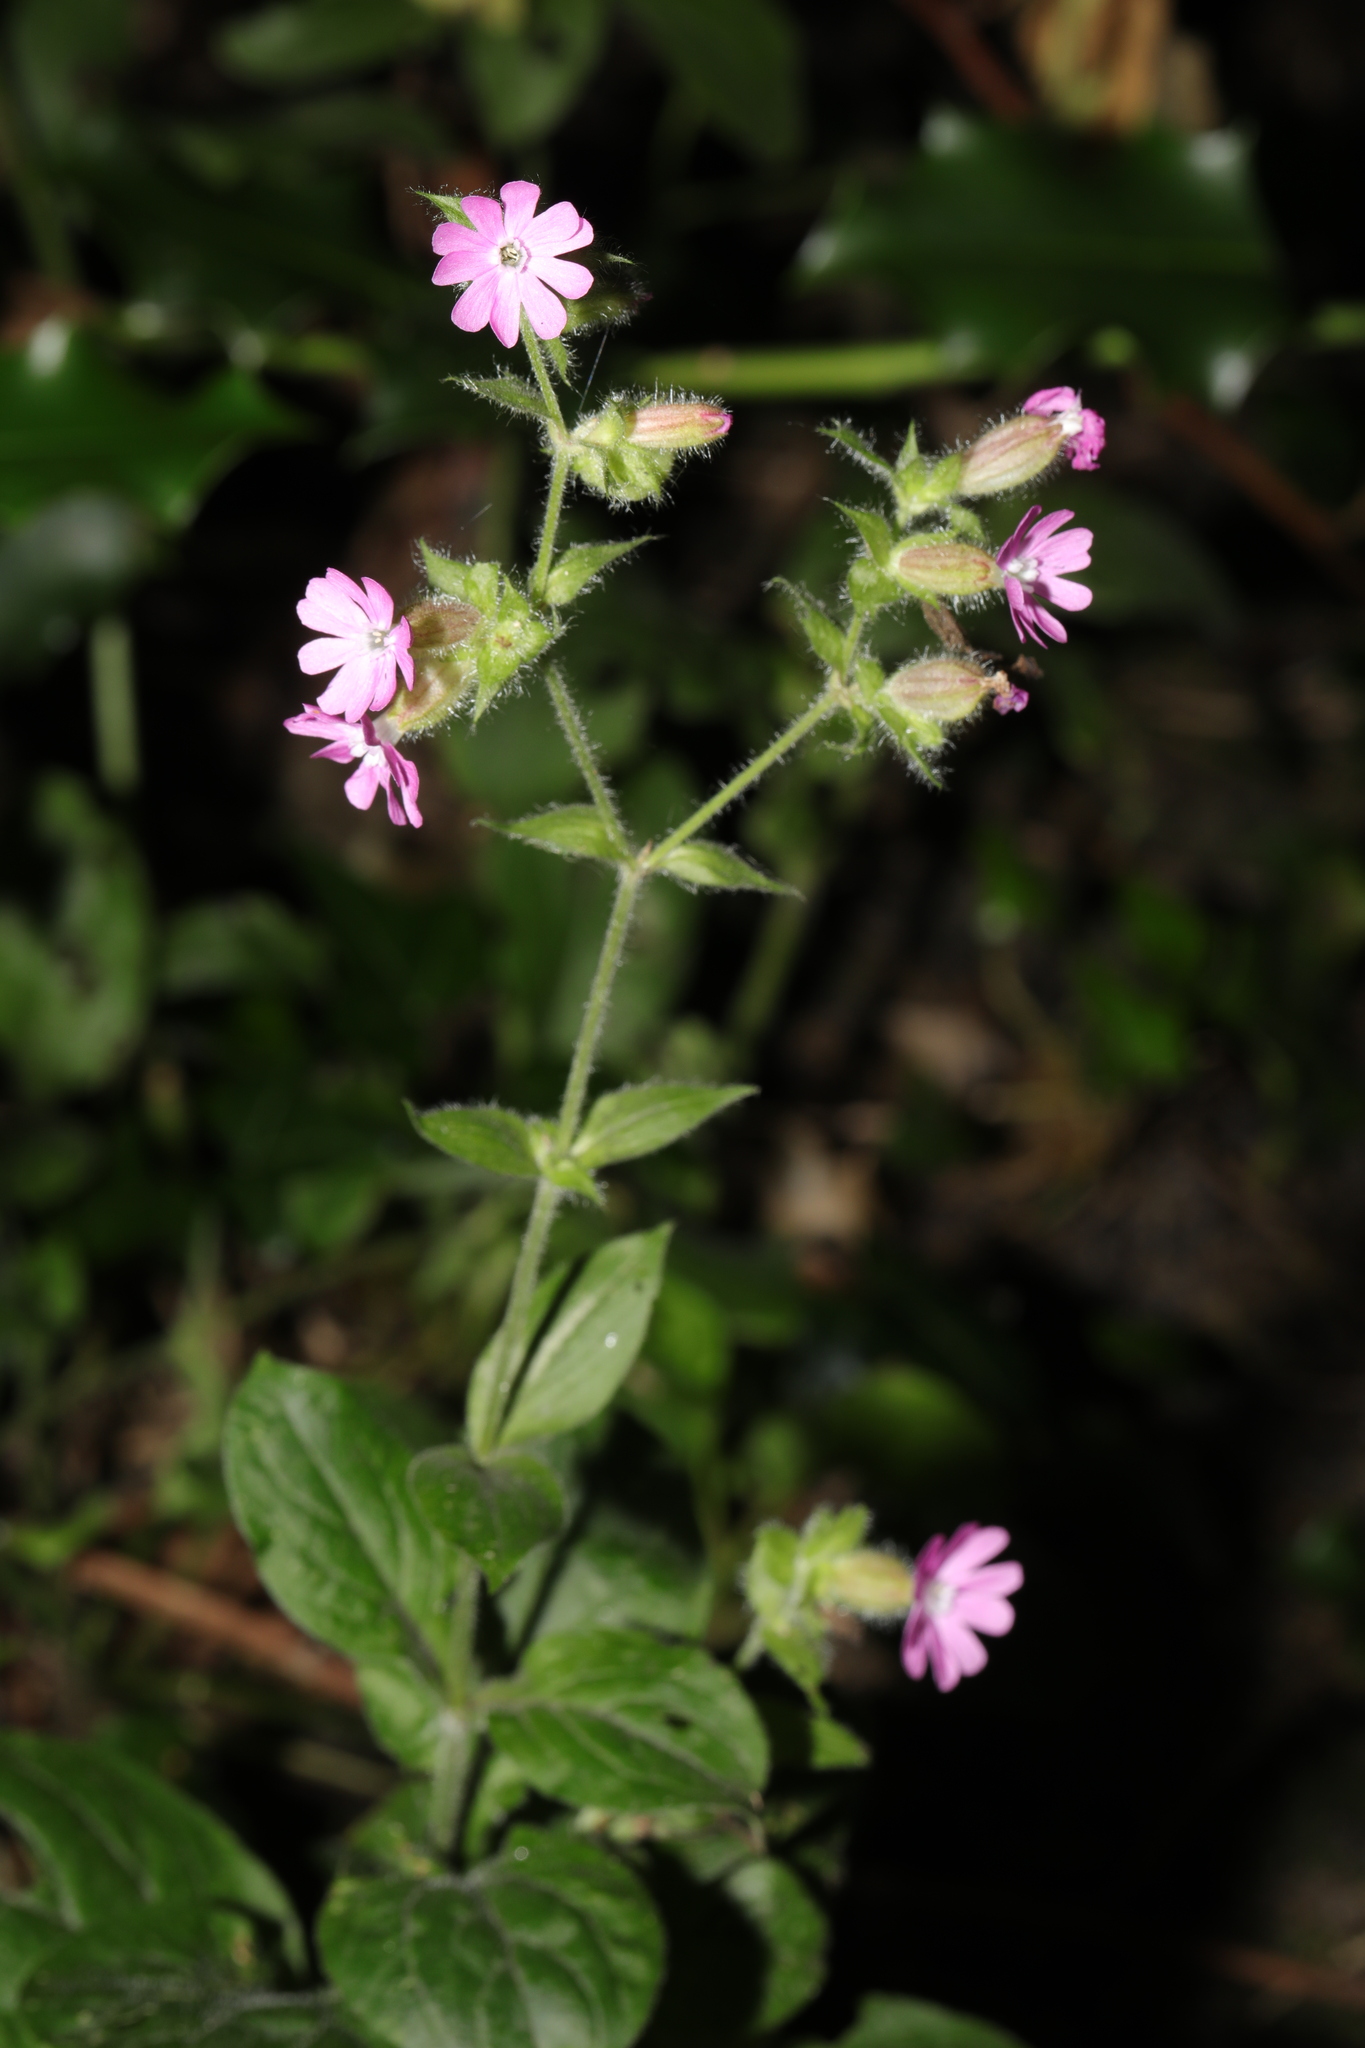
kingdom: Plantae
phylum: Tracheophyta
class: Magnoliopsida
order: Caryophyllales
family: Caryophyllaceae
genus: Silene
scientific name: Silene dioica
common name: Red campion
